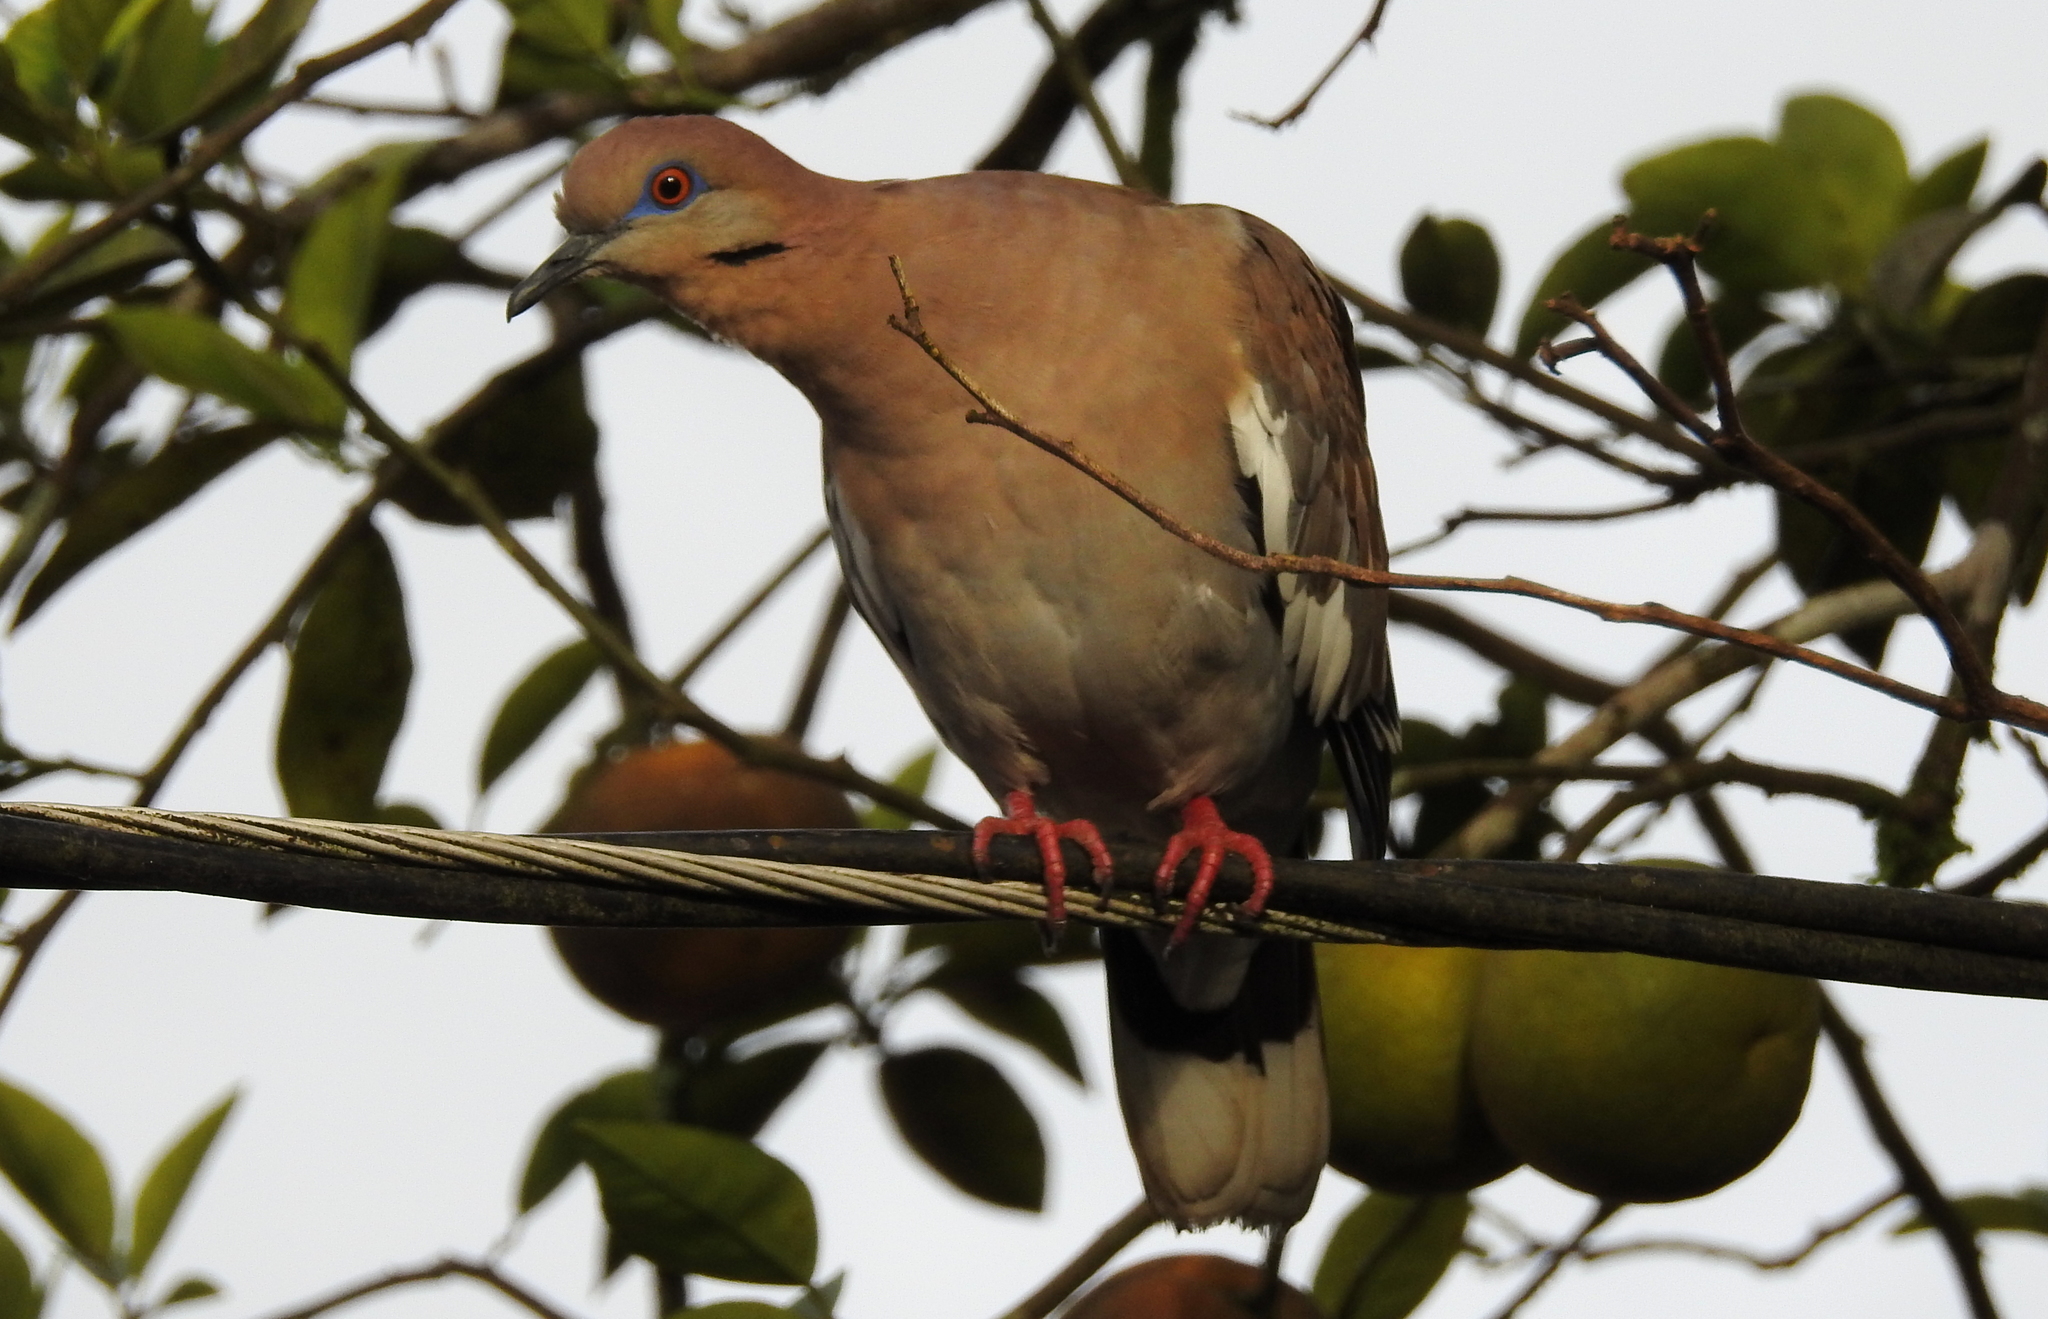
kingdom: Animalia
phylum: Chordata
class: Aves
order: Columbiformes
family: Columbidae
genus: Zenaida
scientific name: Zenaida asiatica
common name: White-winged dove
